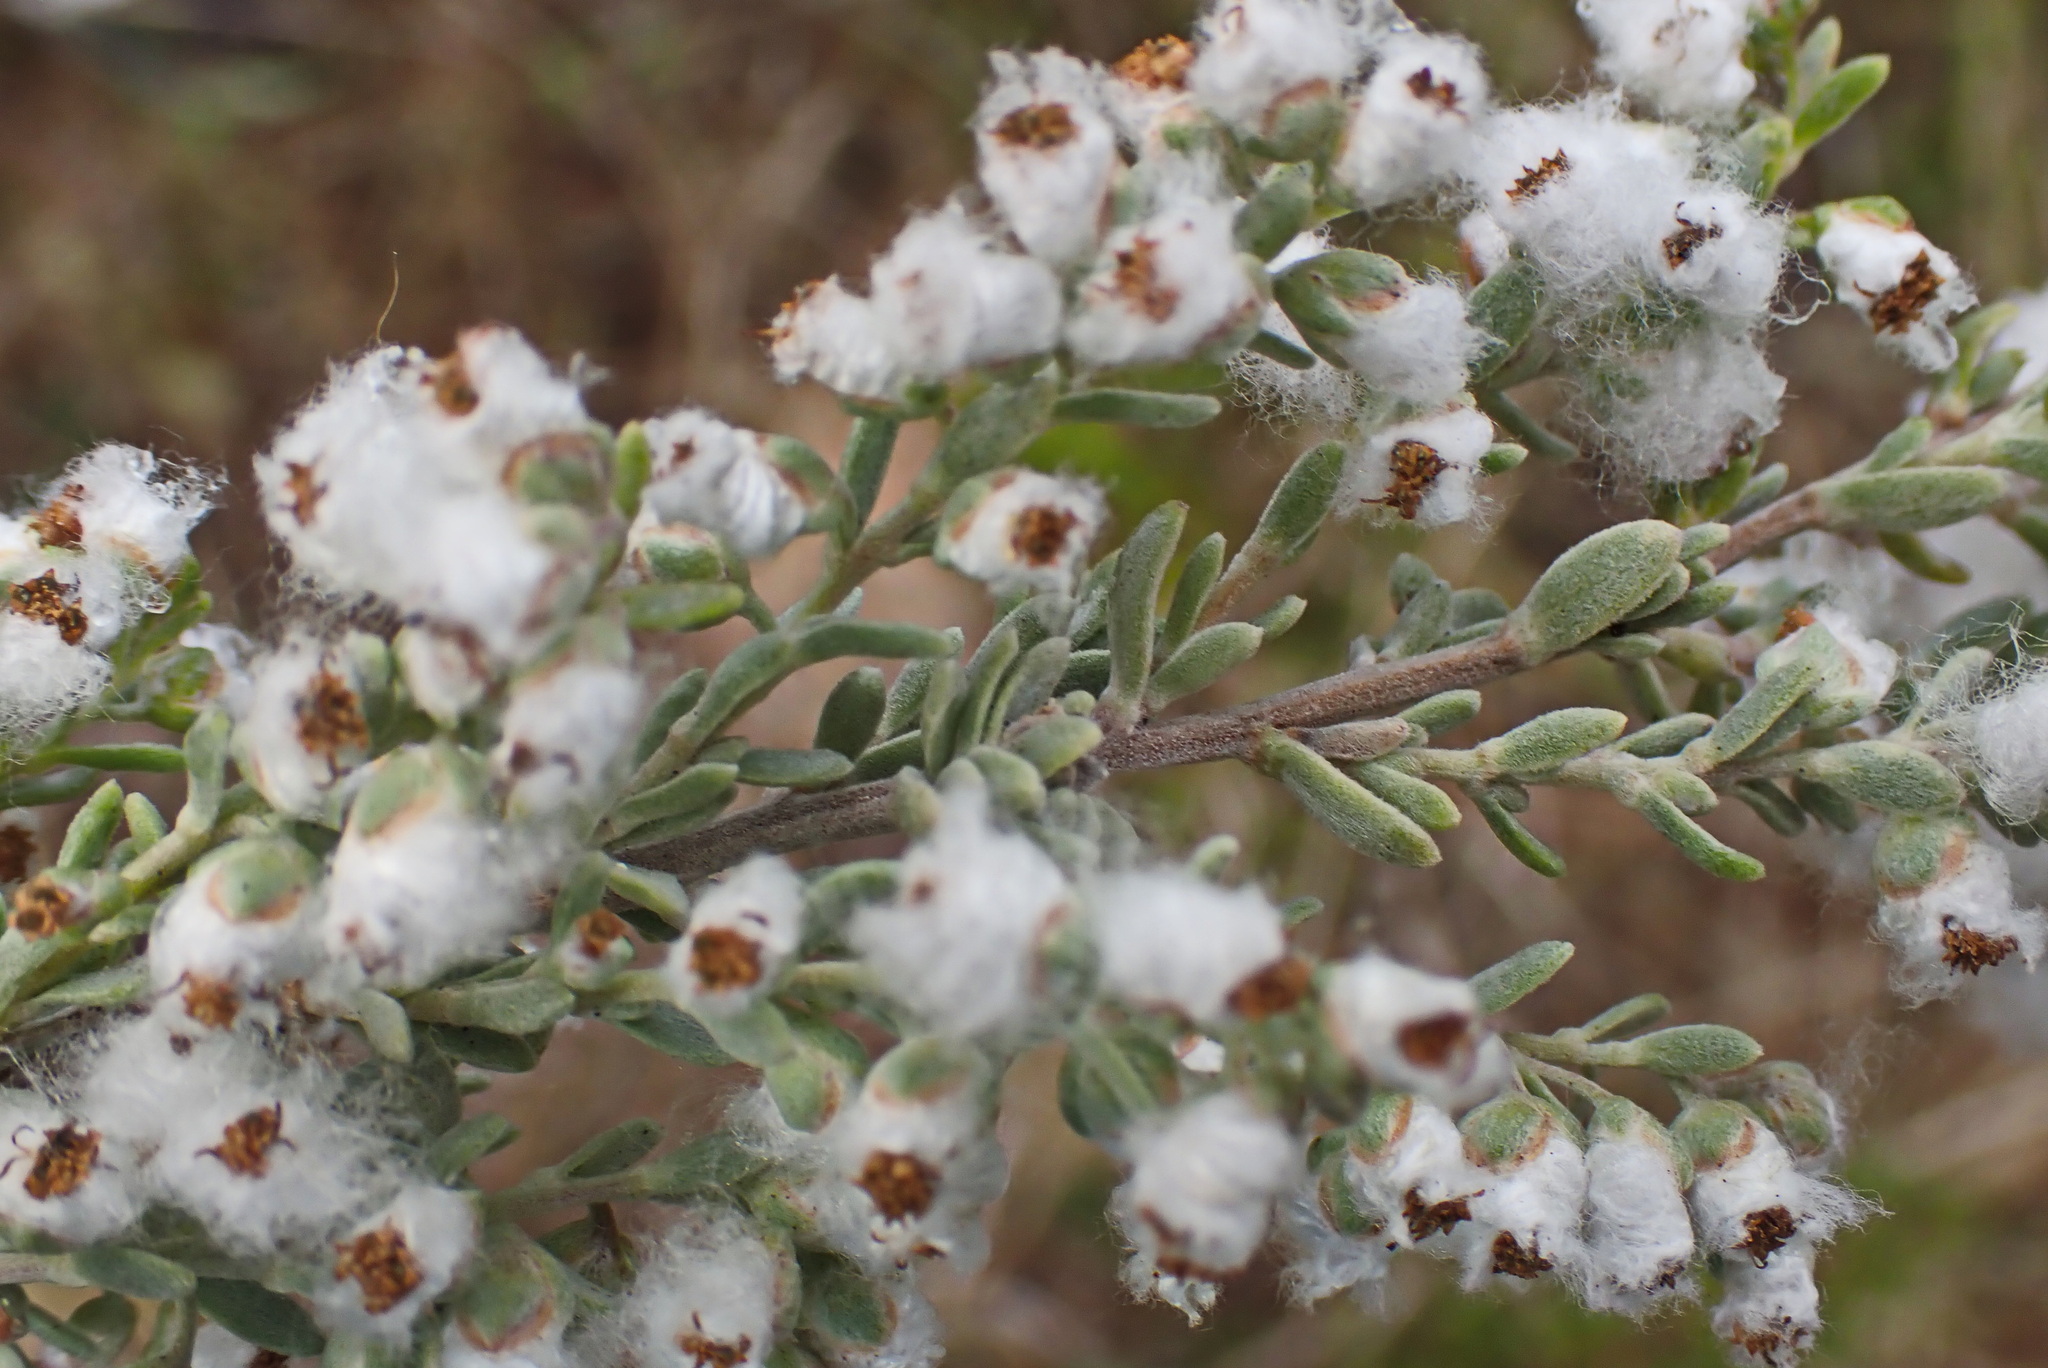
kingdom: Plantae
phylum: Tracheophyta
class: Magnoliopsida
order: Asterales
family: Asteraceae
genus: Eriocephalus
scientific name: Eriocephalus racemosus
